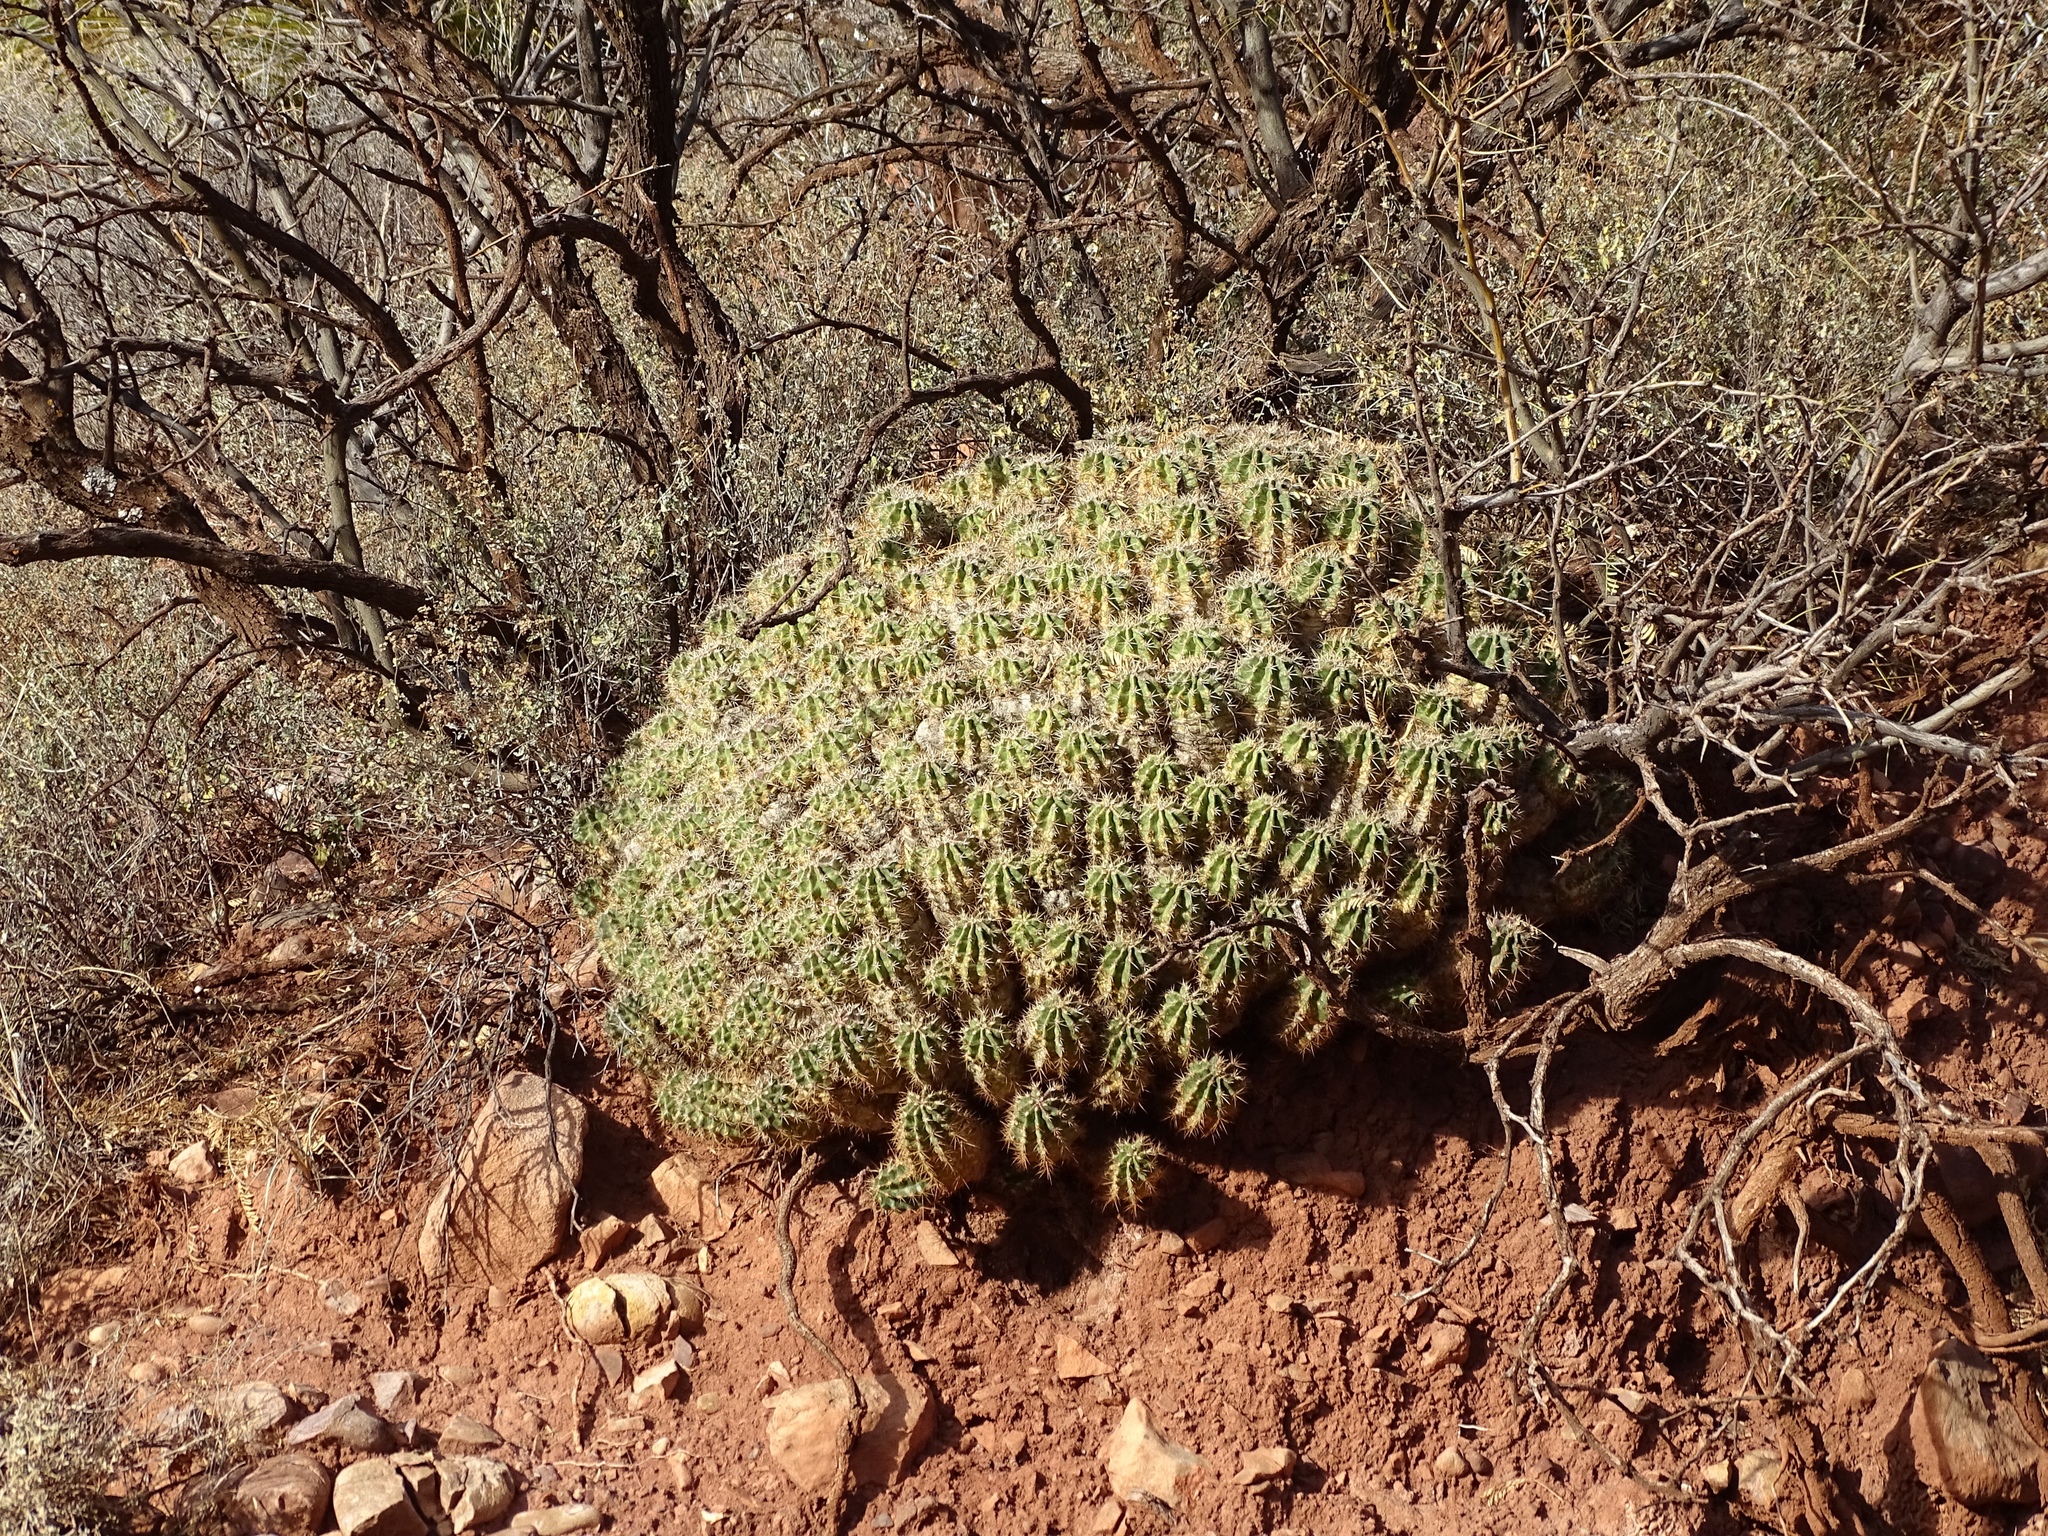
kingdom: Plantae
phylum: Tracheophyta
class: Magnoliopsida
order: Caryophyllales
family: Cactaceae
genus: Echinocereus
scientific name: Echinocereus coccineus
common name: Scarlet hedgehog cactus
